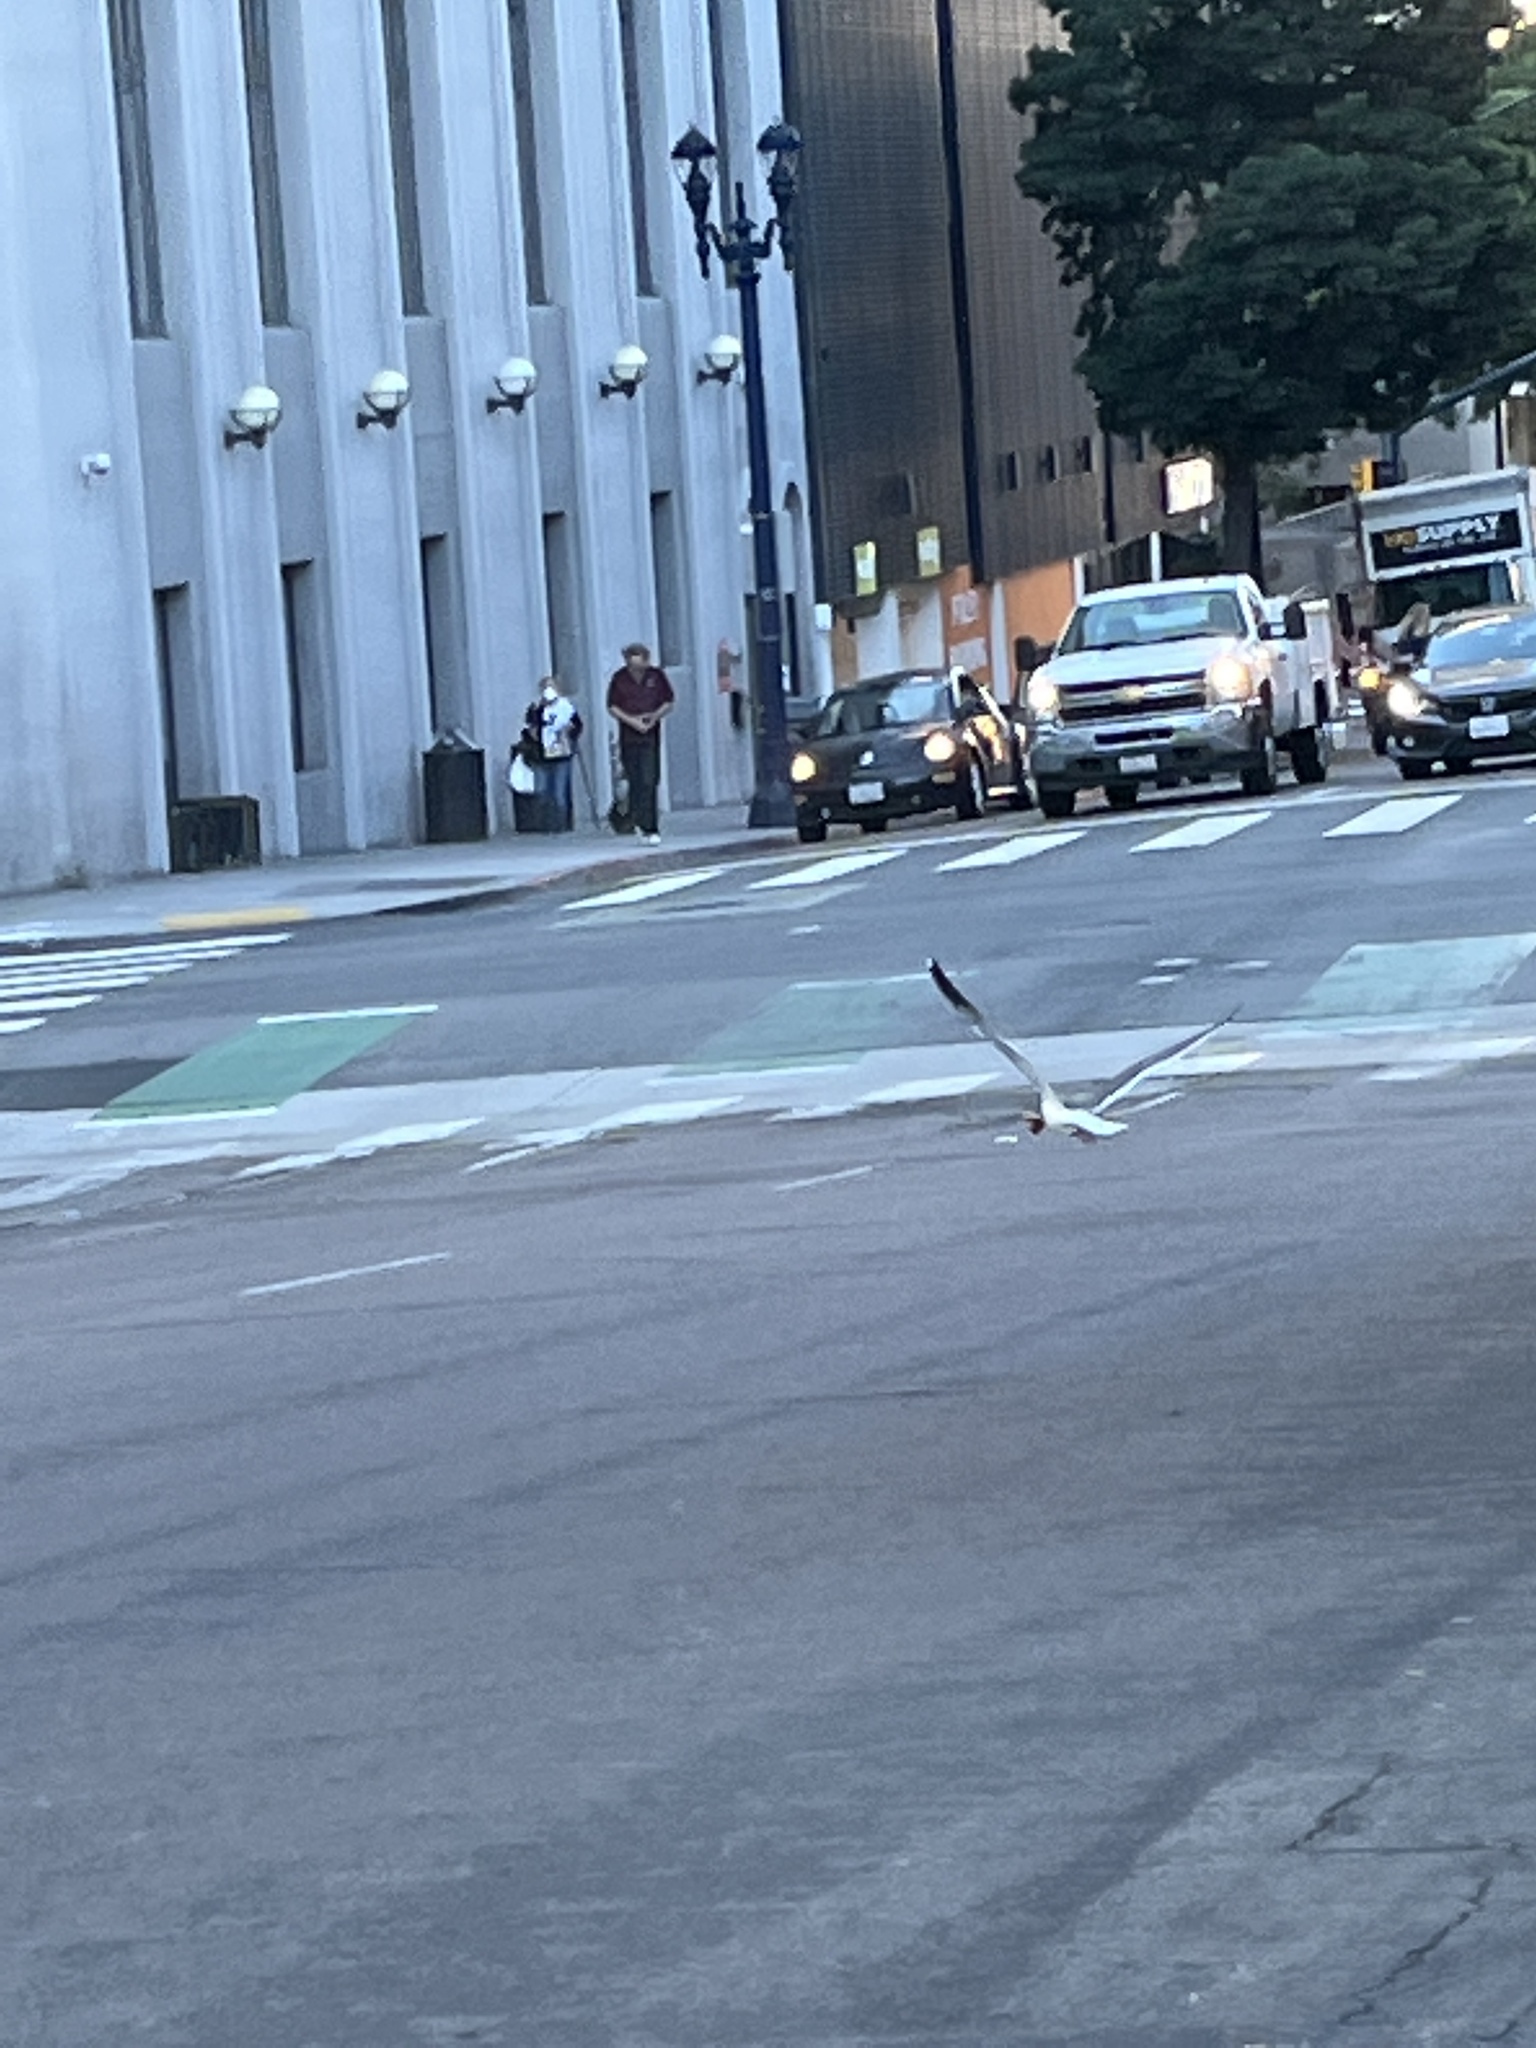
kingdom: Animalia
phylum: Chordata
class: Aves
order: Charadriiformes
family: Laridae
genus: Larus
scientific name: Larus occidentalis
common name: Western gull
